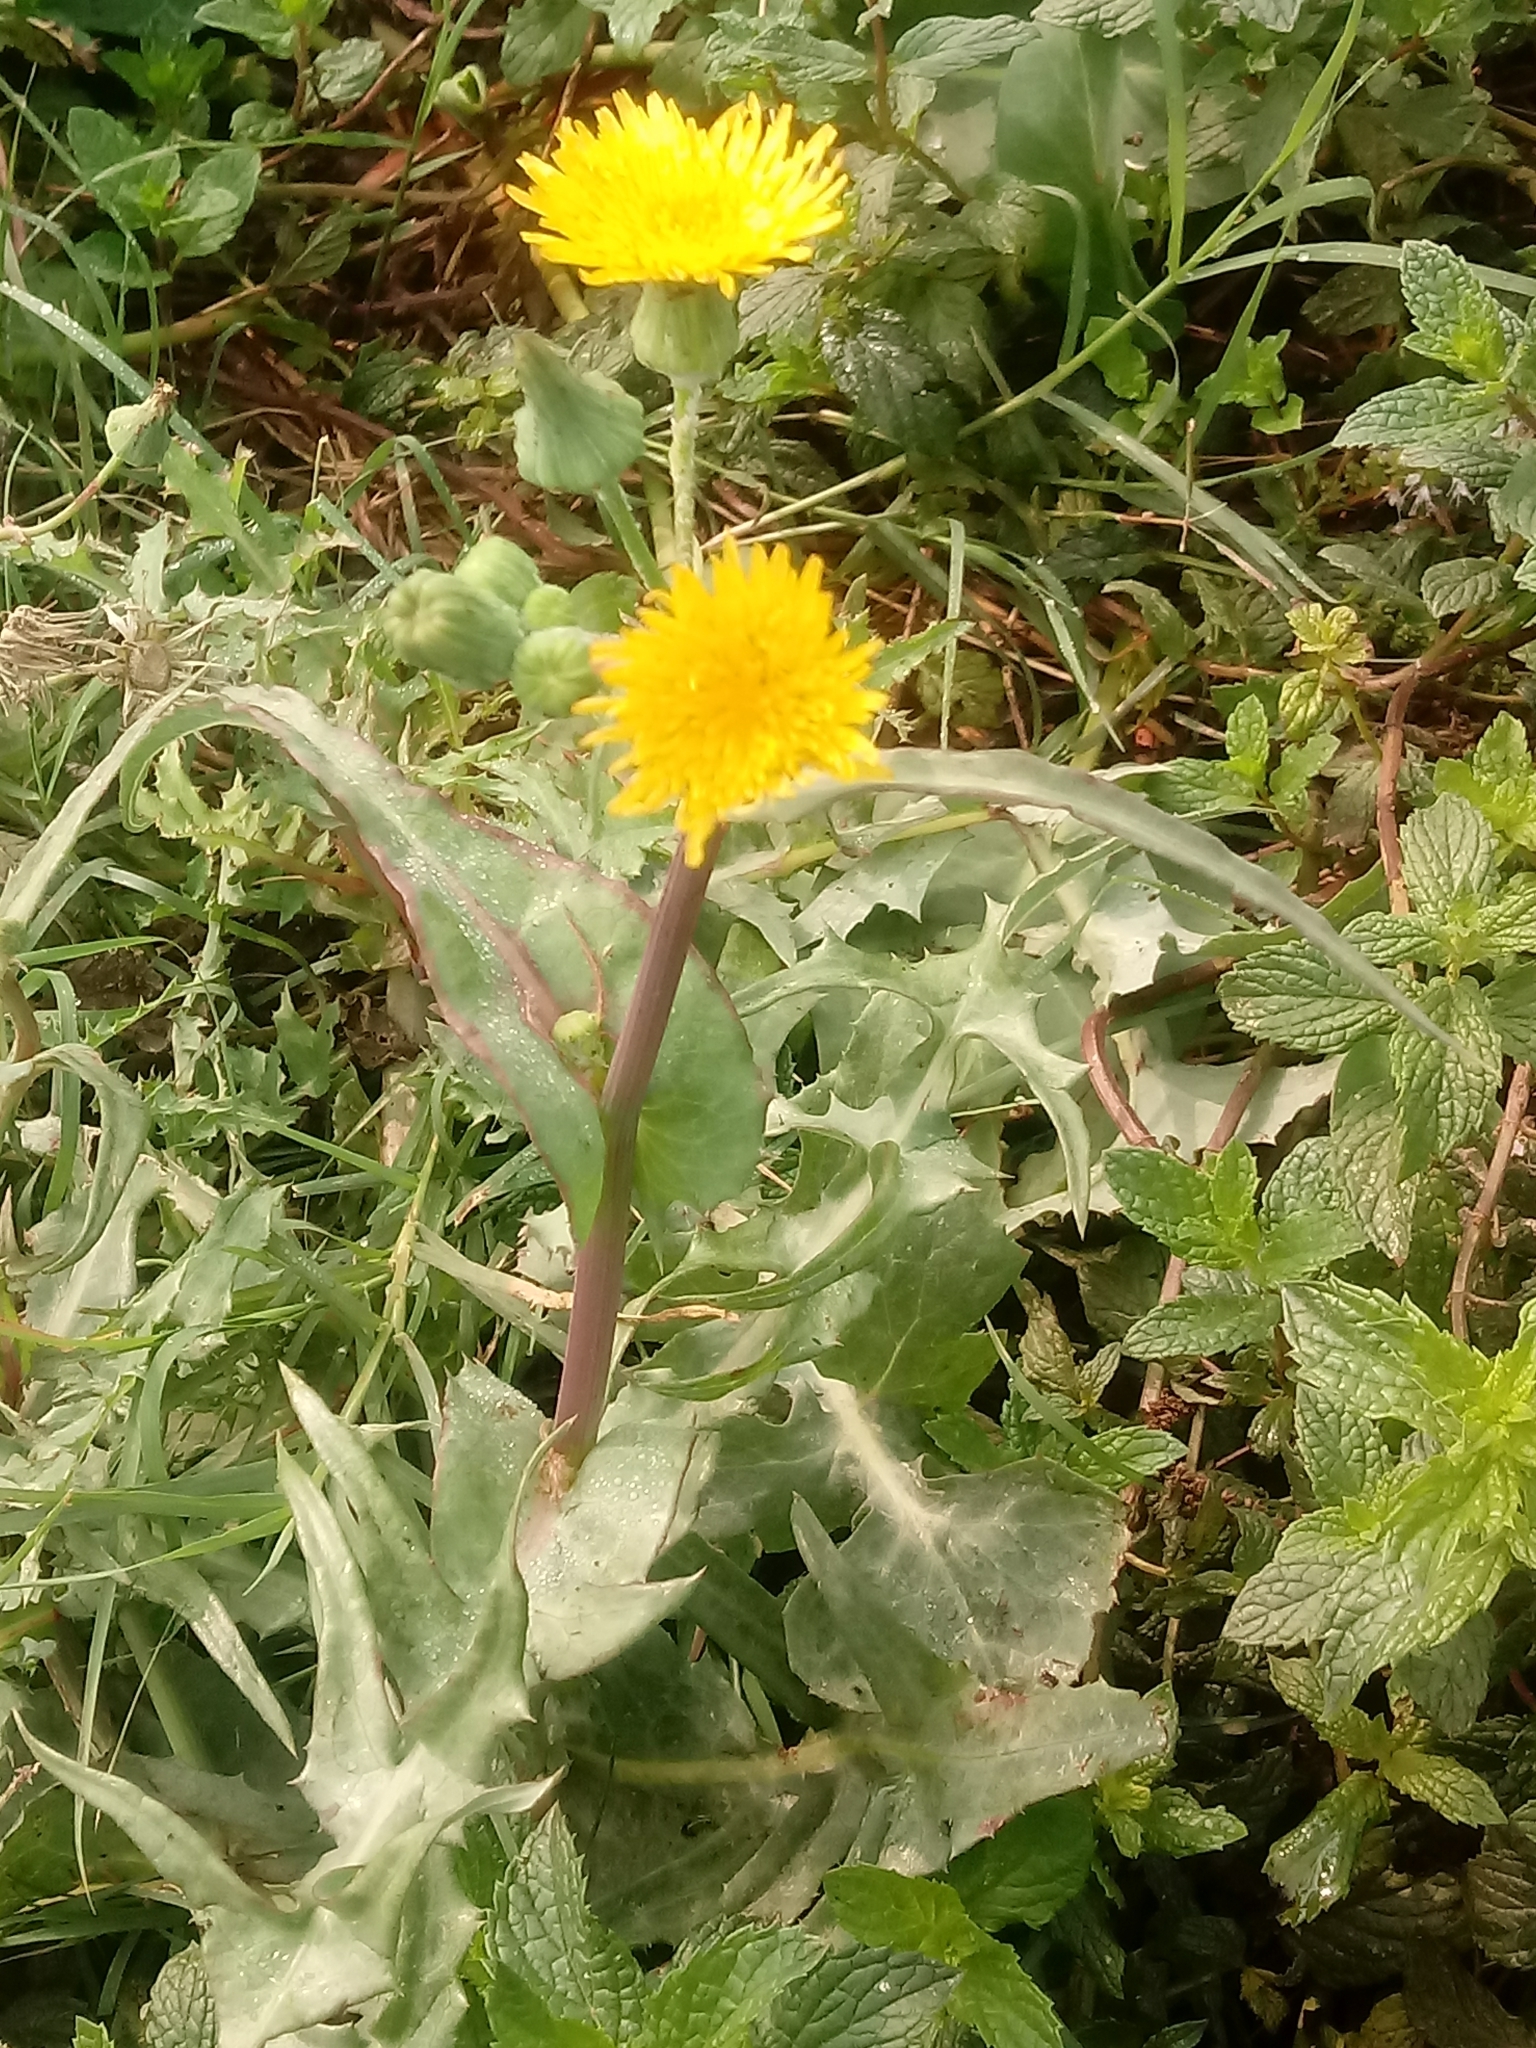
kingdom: Plantae
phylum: Tracheophyta
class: Magnoliopsida
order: Asterales
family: Asteraceae
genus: Sonchus
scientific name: Sonchus oleraceus
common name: Common sowthistle
